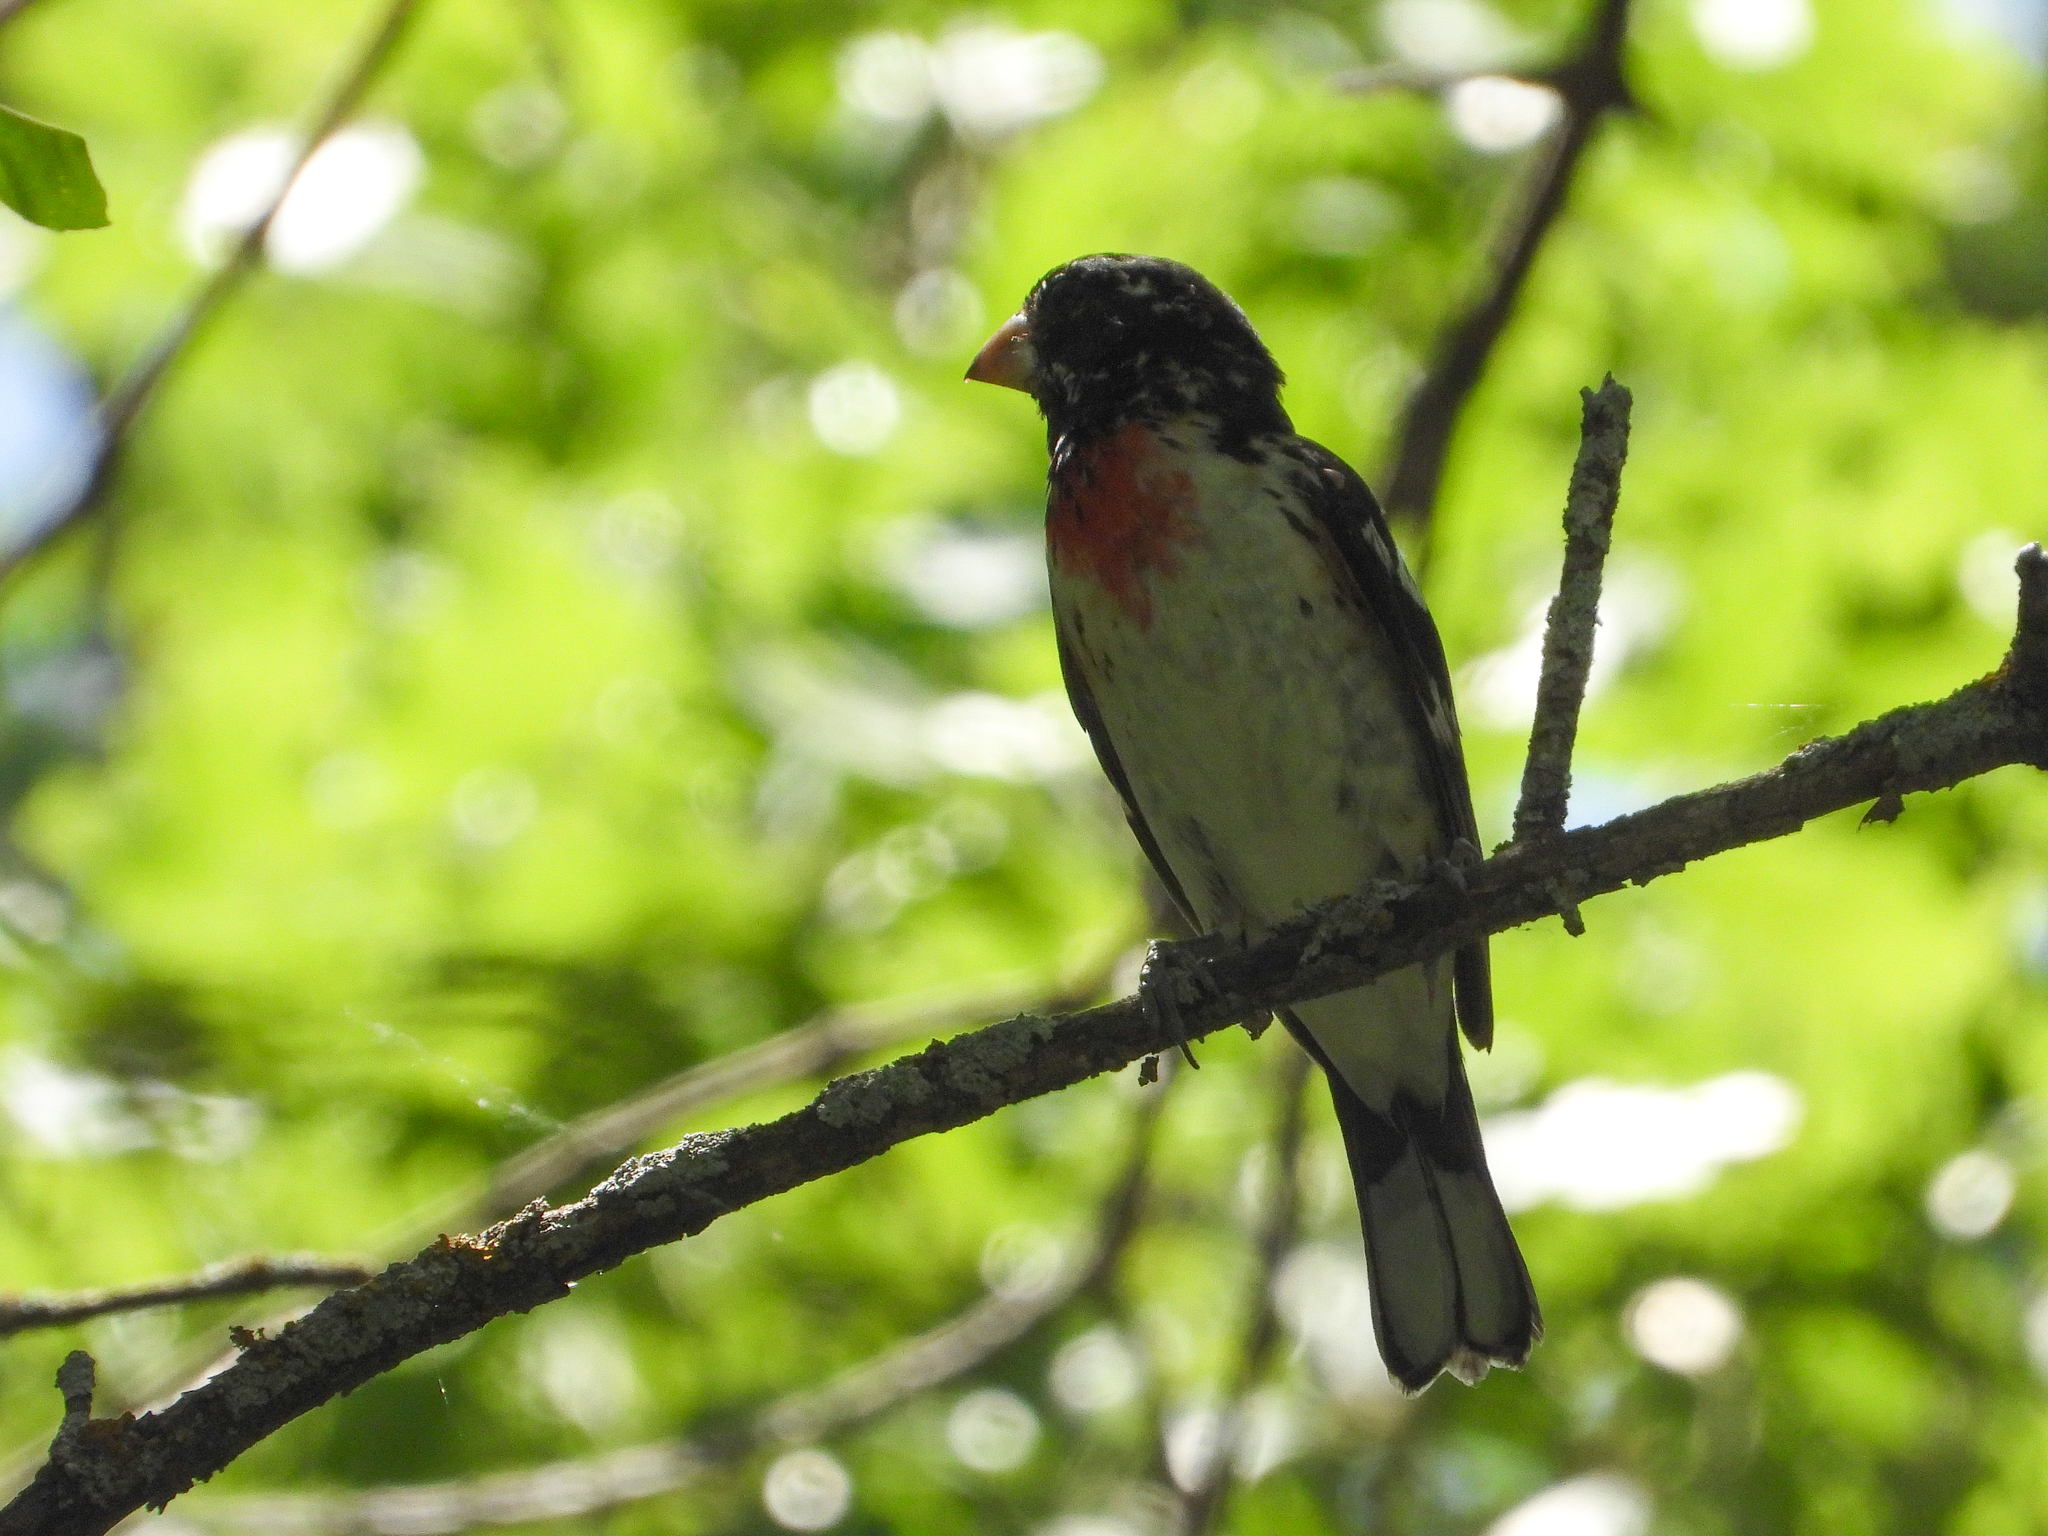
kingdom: Animalia
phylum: Chordata
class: Aves
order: Passeriformes
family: Cardinalidae
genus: Pheucticus
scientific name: Pheucticus ludovicianus
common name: Rose-breasted grosbeak
